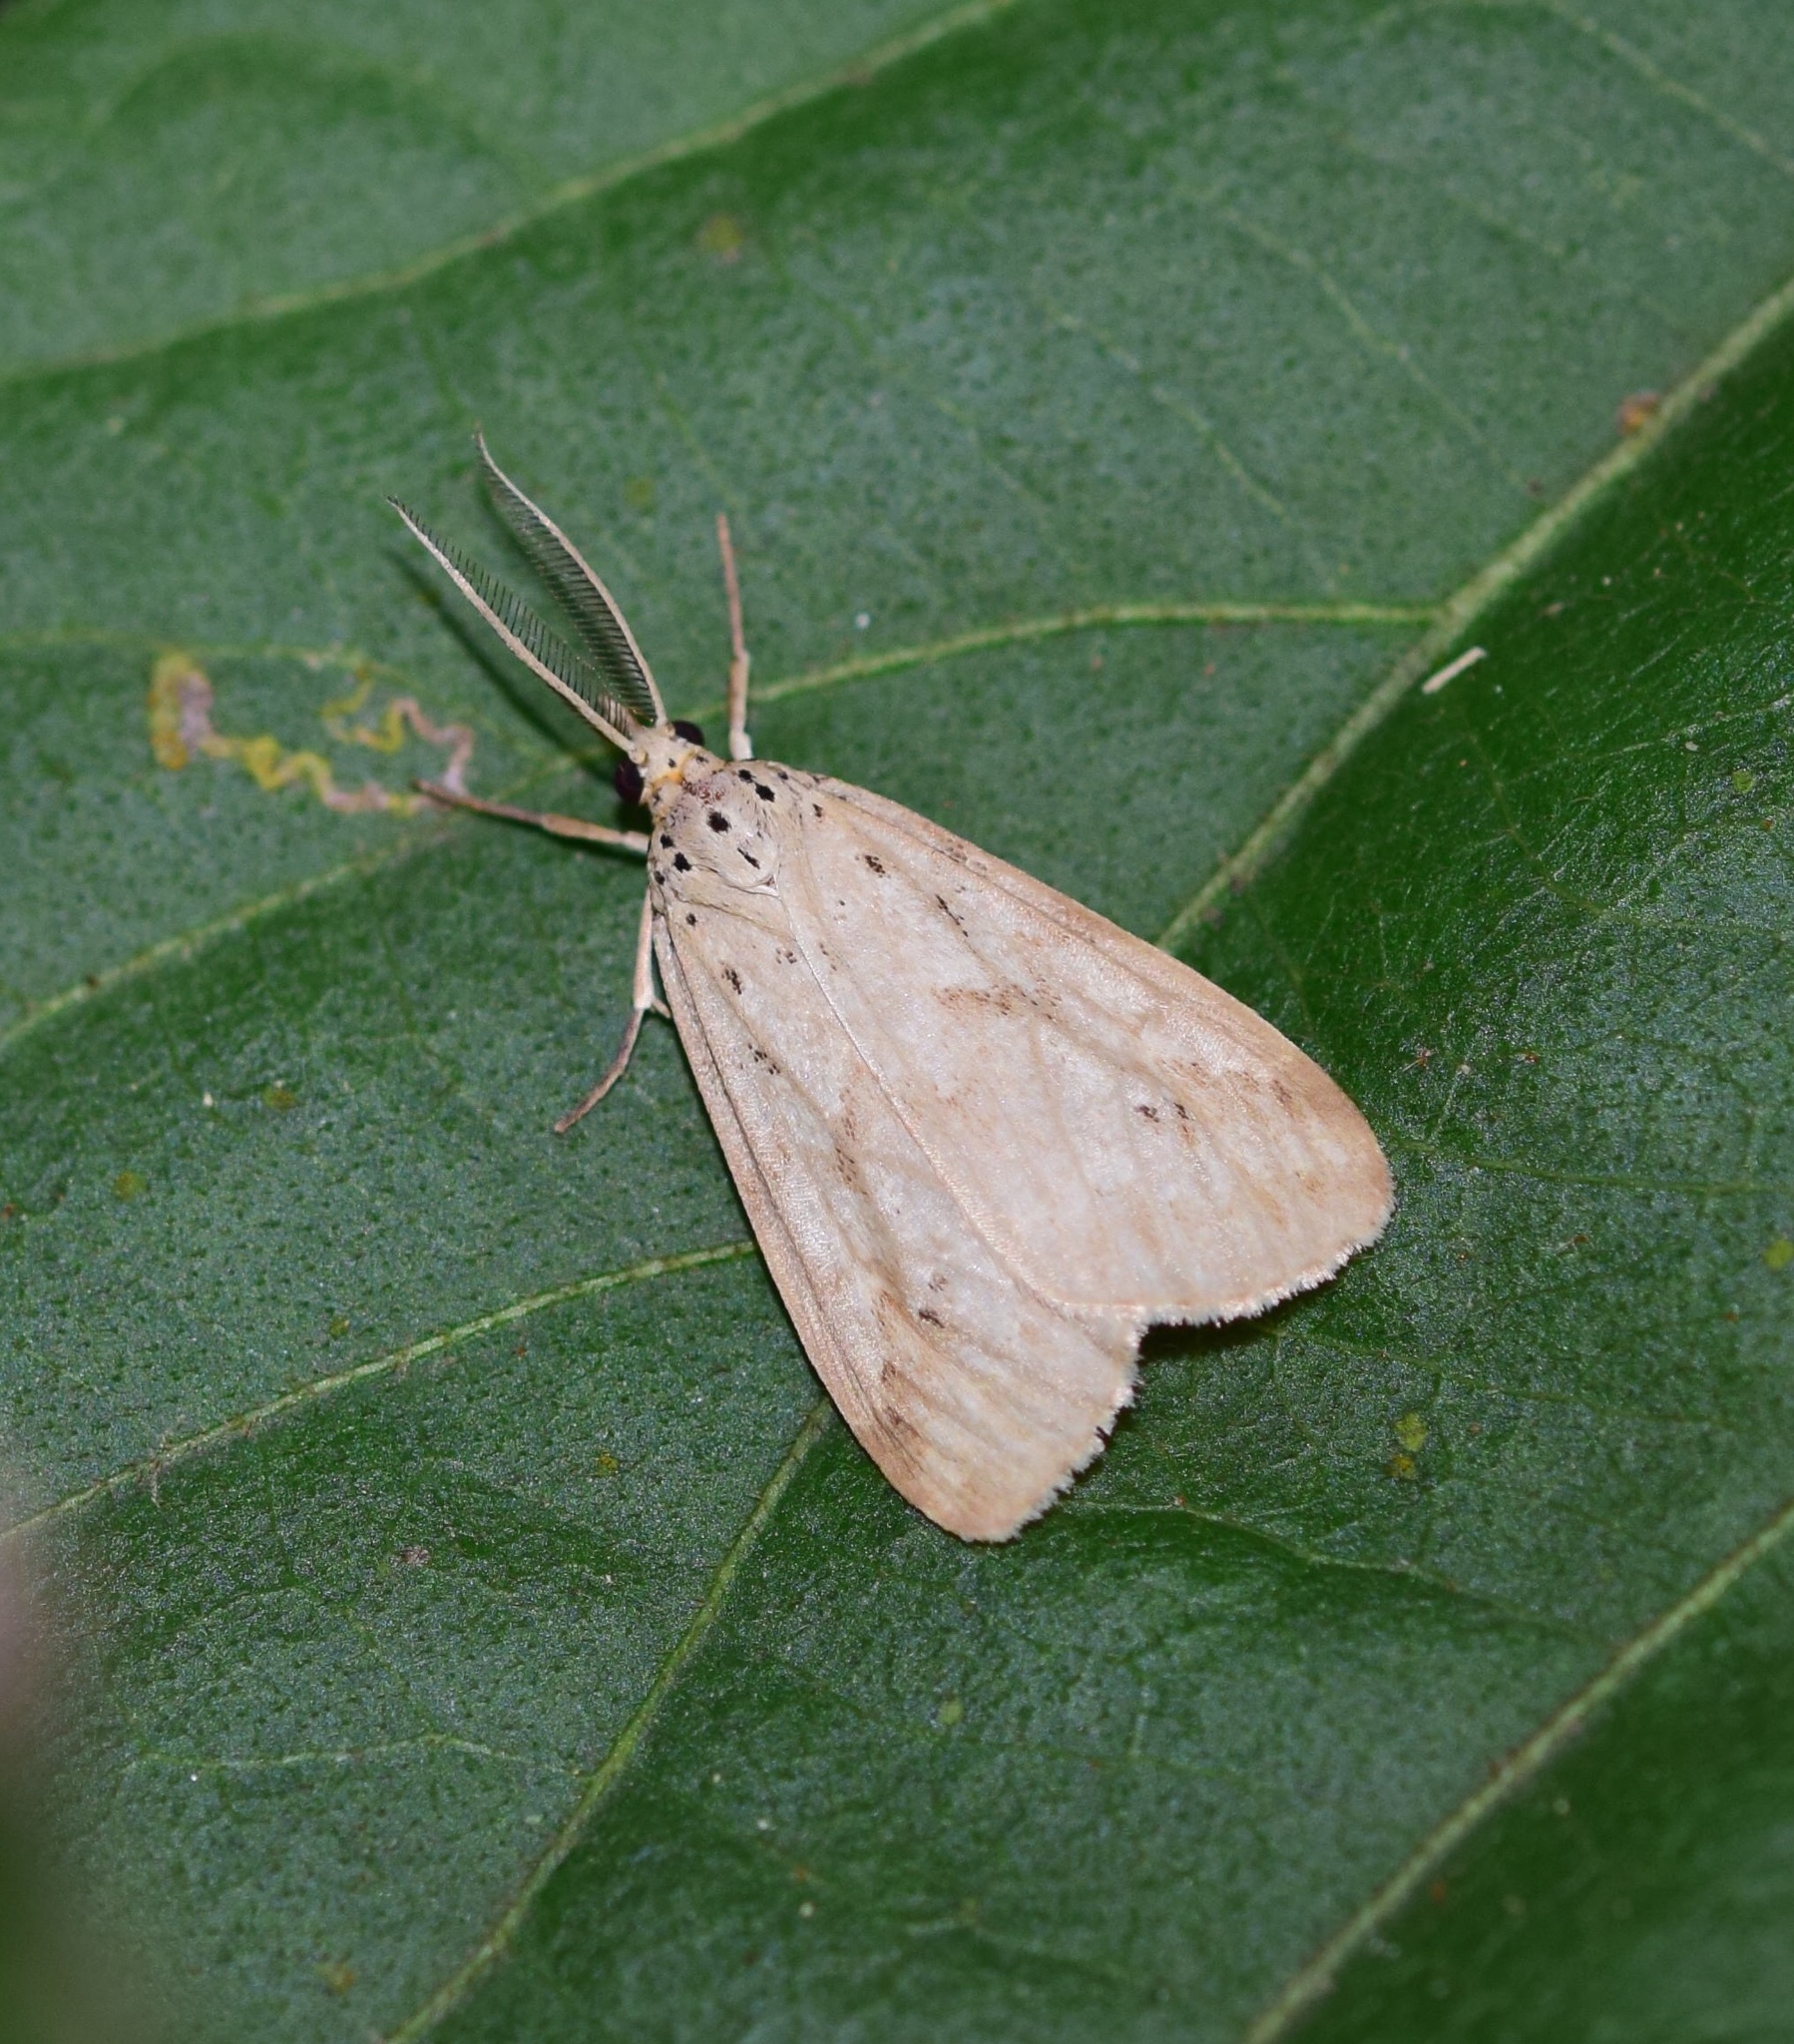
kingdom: Animalia
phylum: Arthropoda
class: Insecta
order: Lepidoptera
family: Erebidae
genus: Galtara
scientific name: Galtara rostrata
